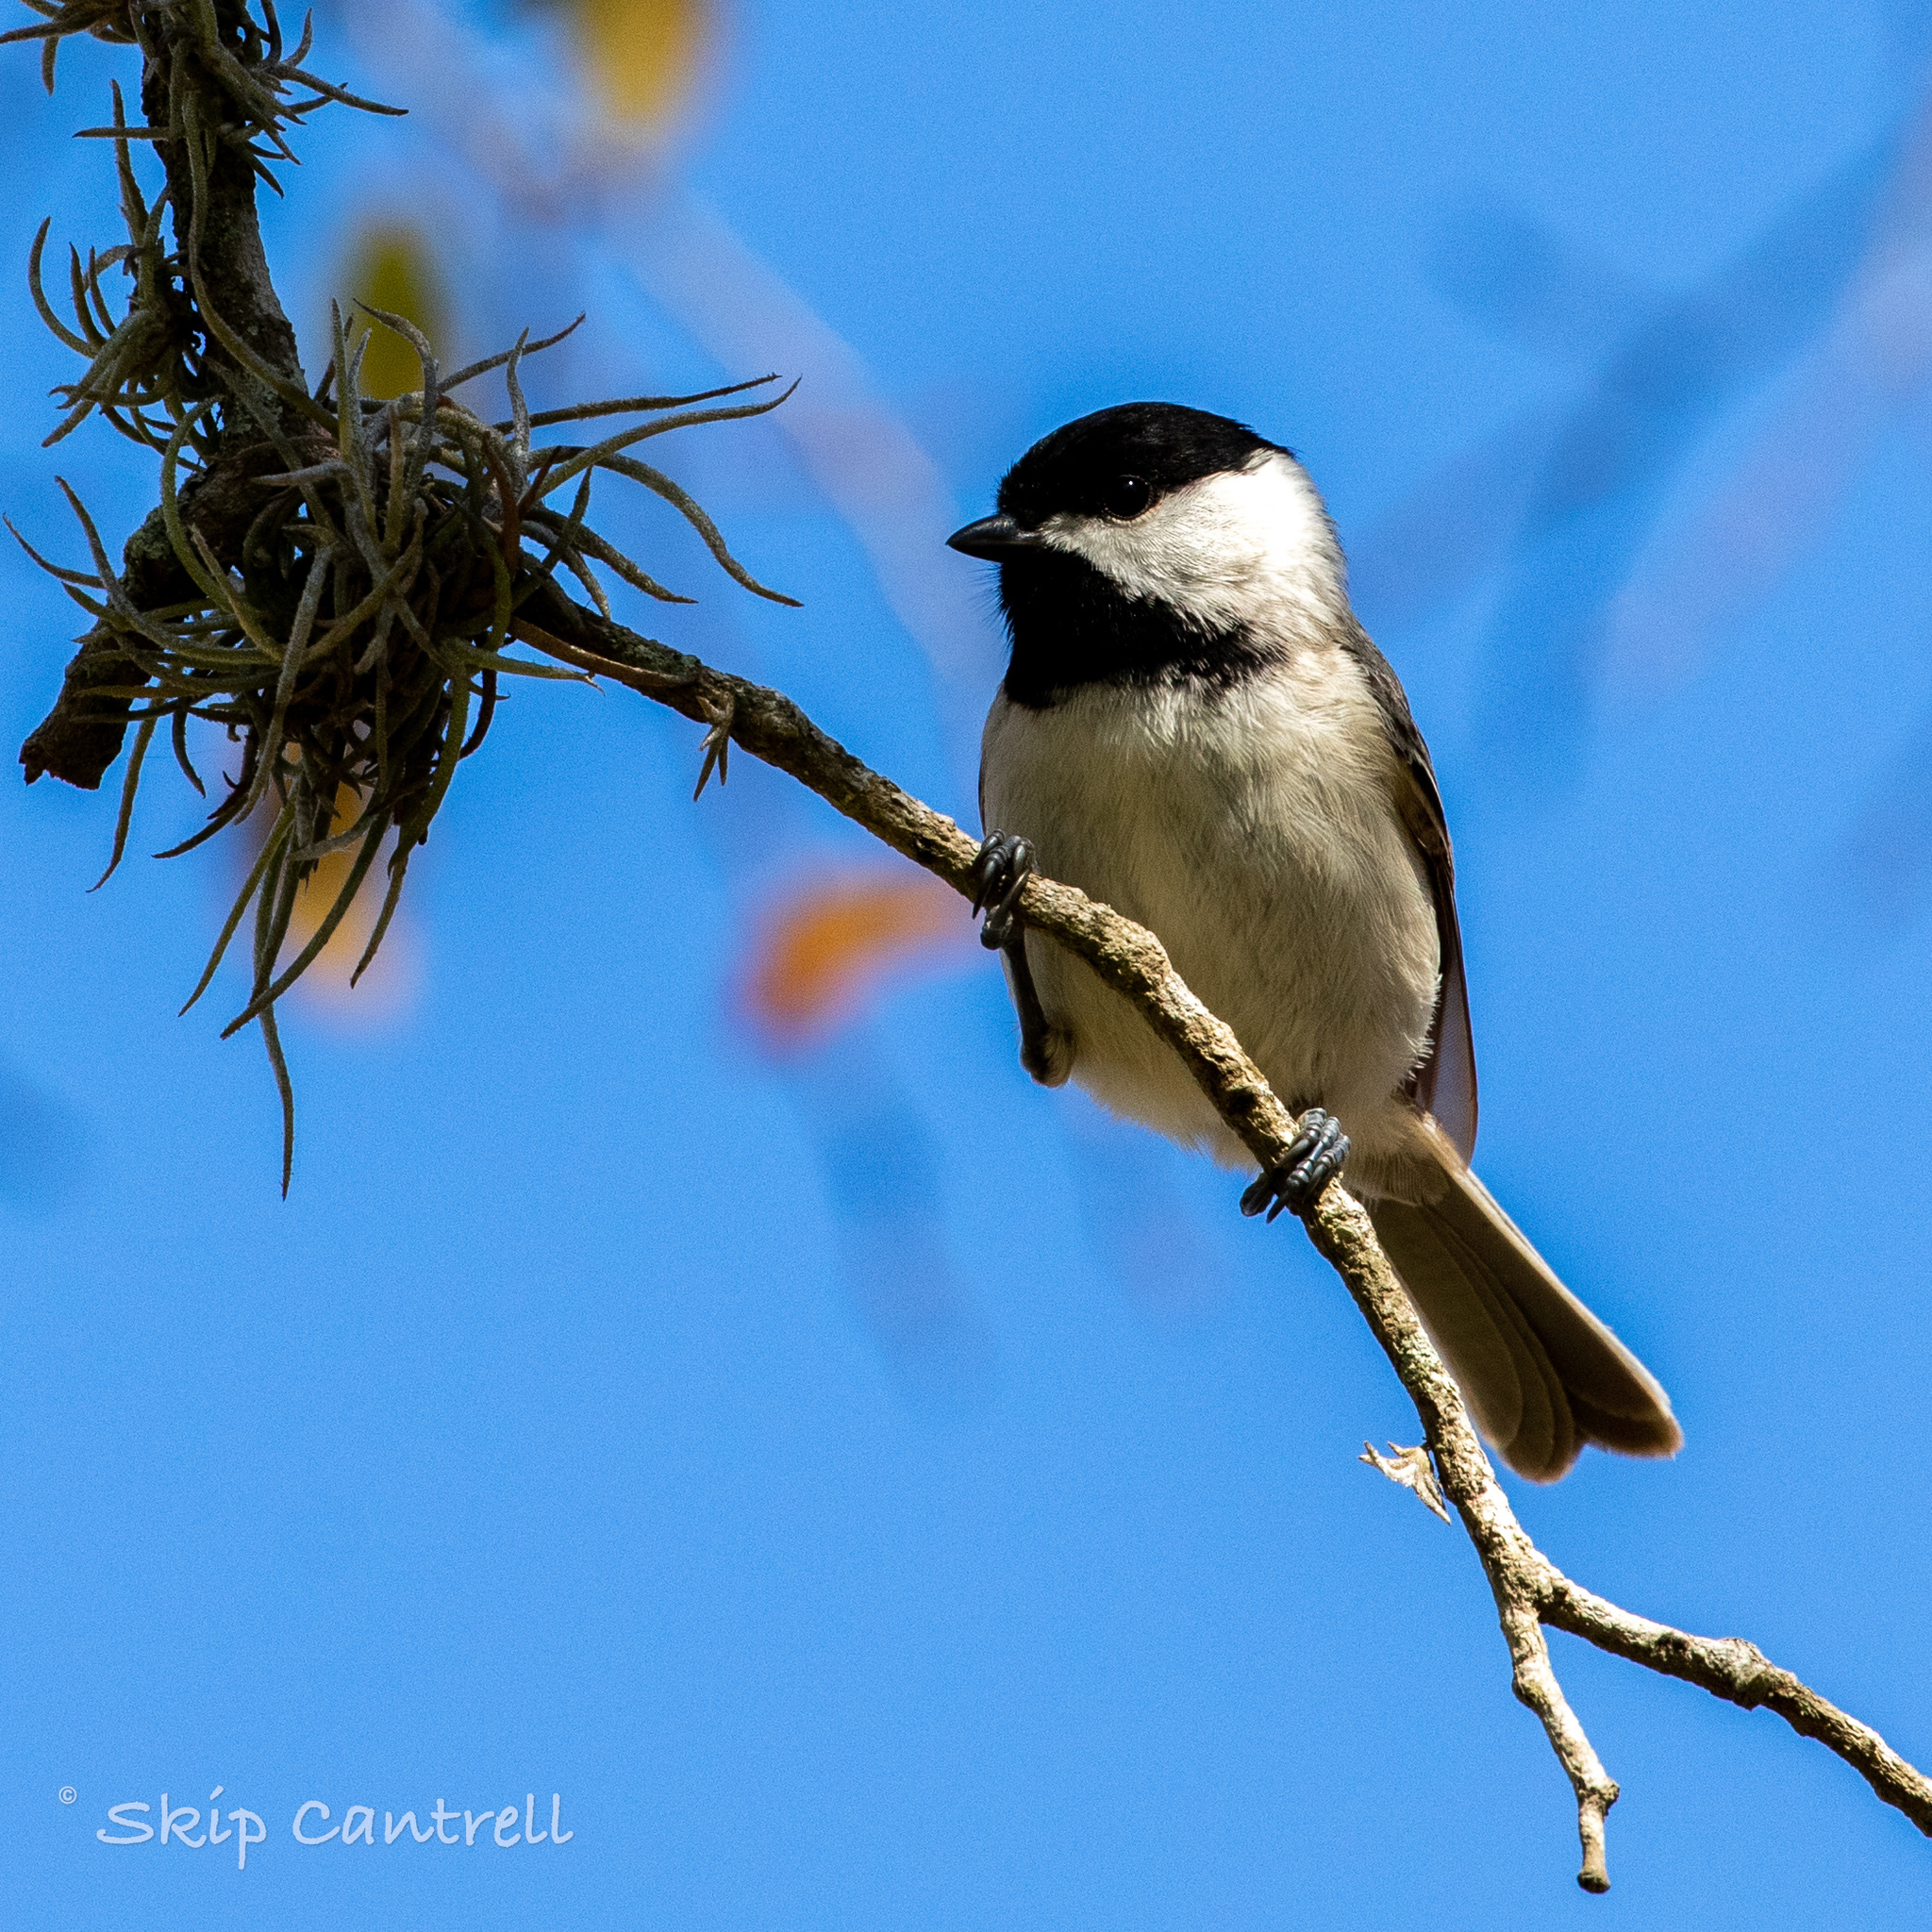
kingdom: Animalia
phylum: Chordata
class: Aves
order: Passeriformes
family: Paridae
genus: Poecile
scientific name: Poecile carolinensis
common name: Carolina chickadee
